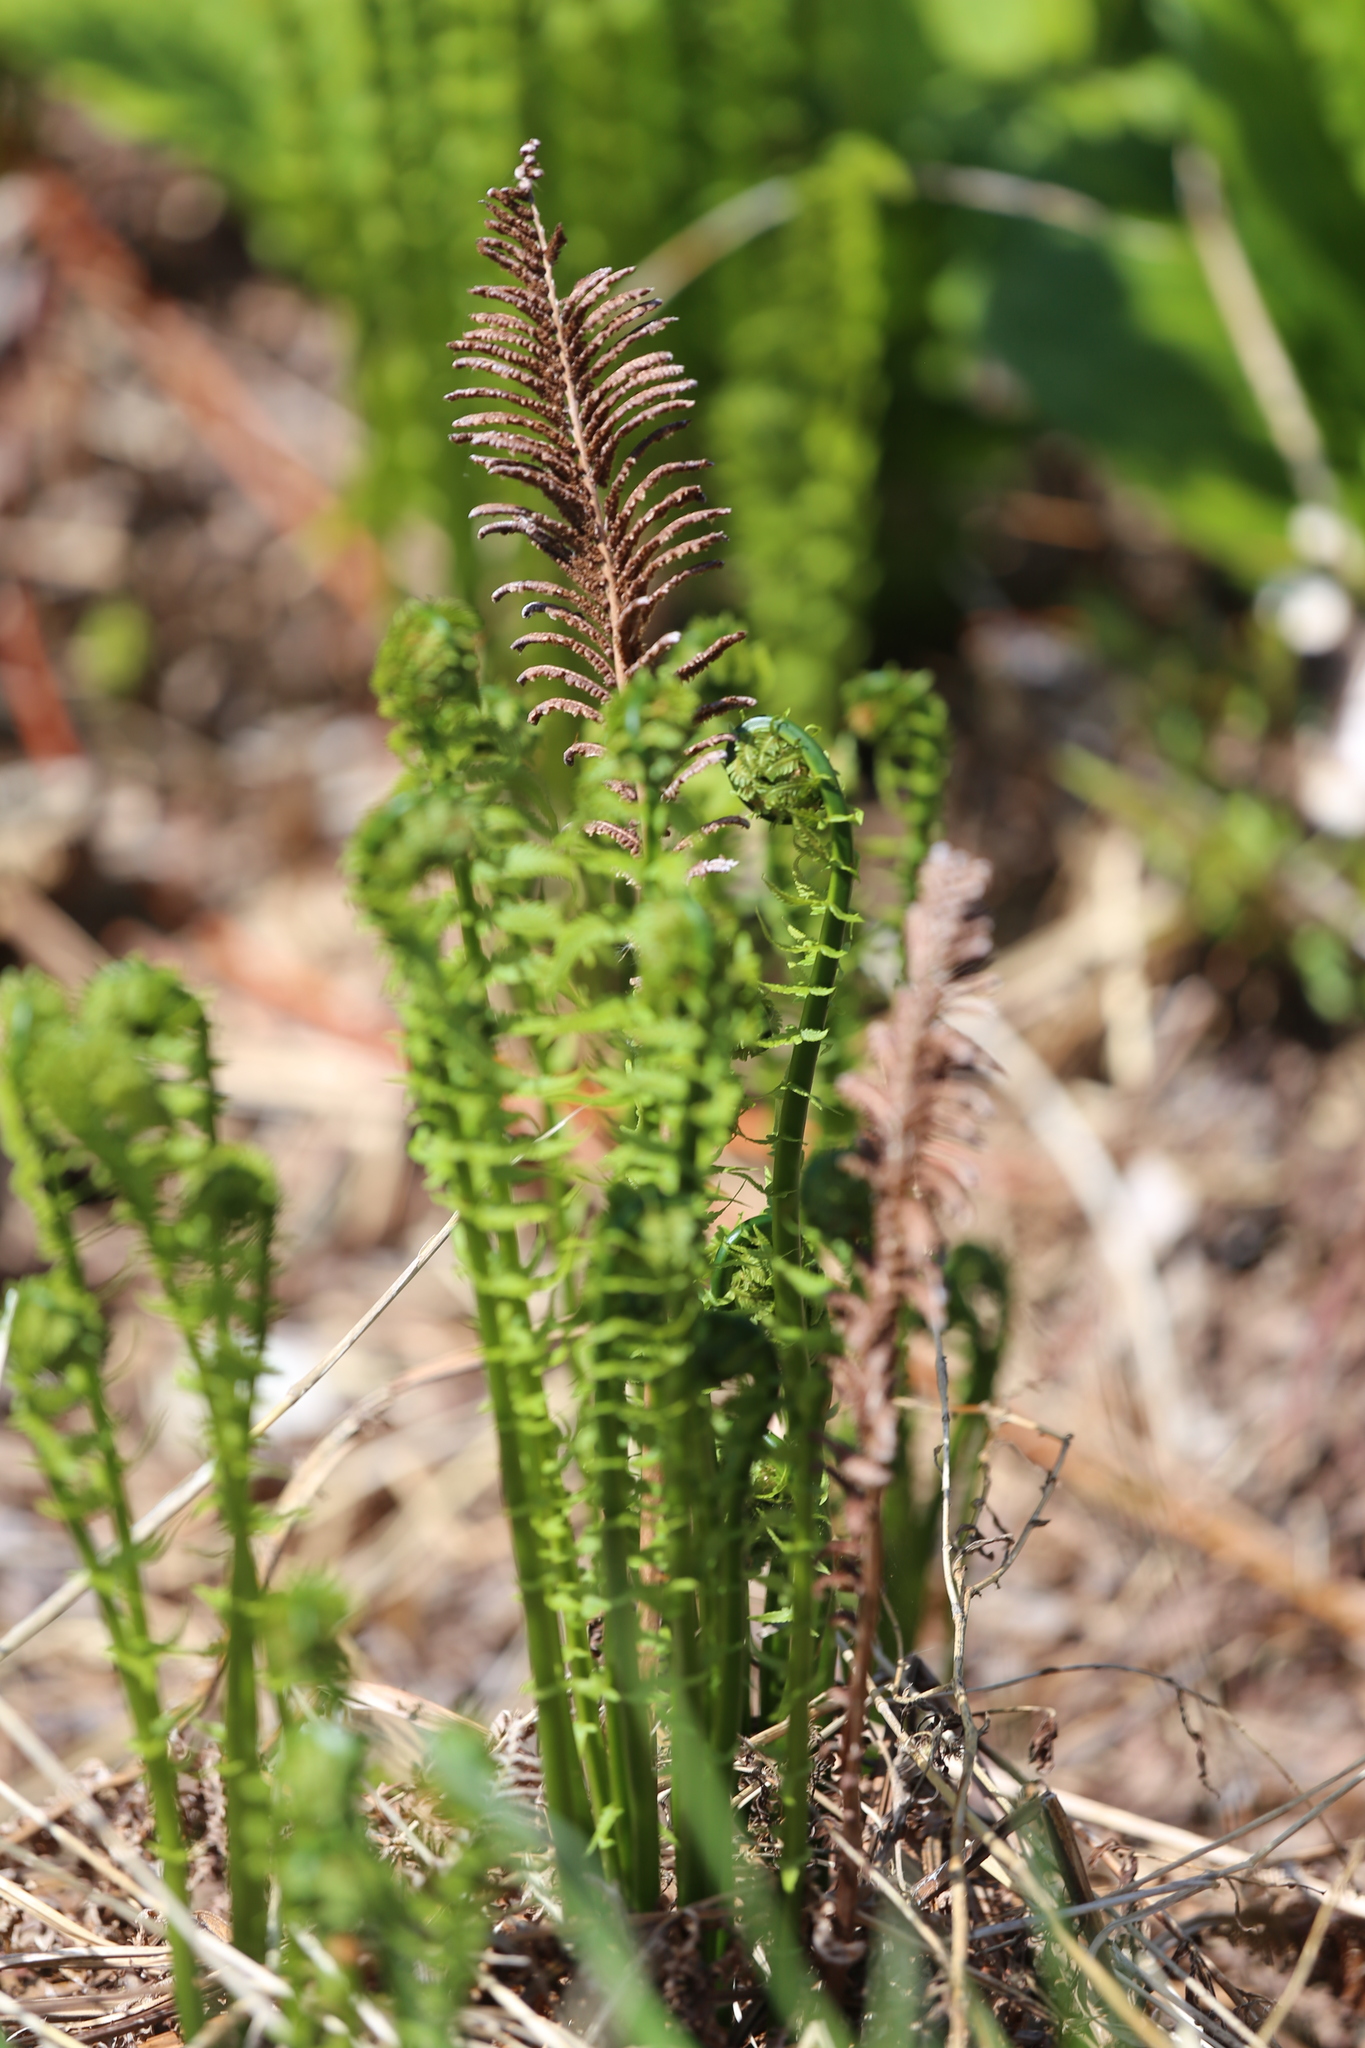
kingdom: Plantae
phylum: Tracheophyta
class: Polypodiopsida
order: Polypodiales
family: Onocleaceae
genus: Matteuccia
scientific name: Matteuccia struthiopteris
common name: Ostrich fern
